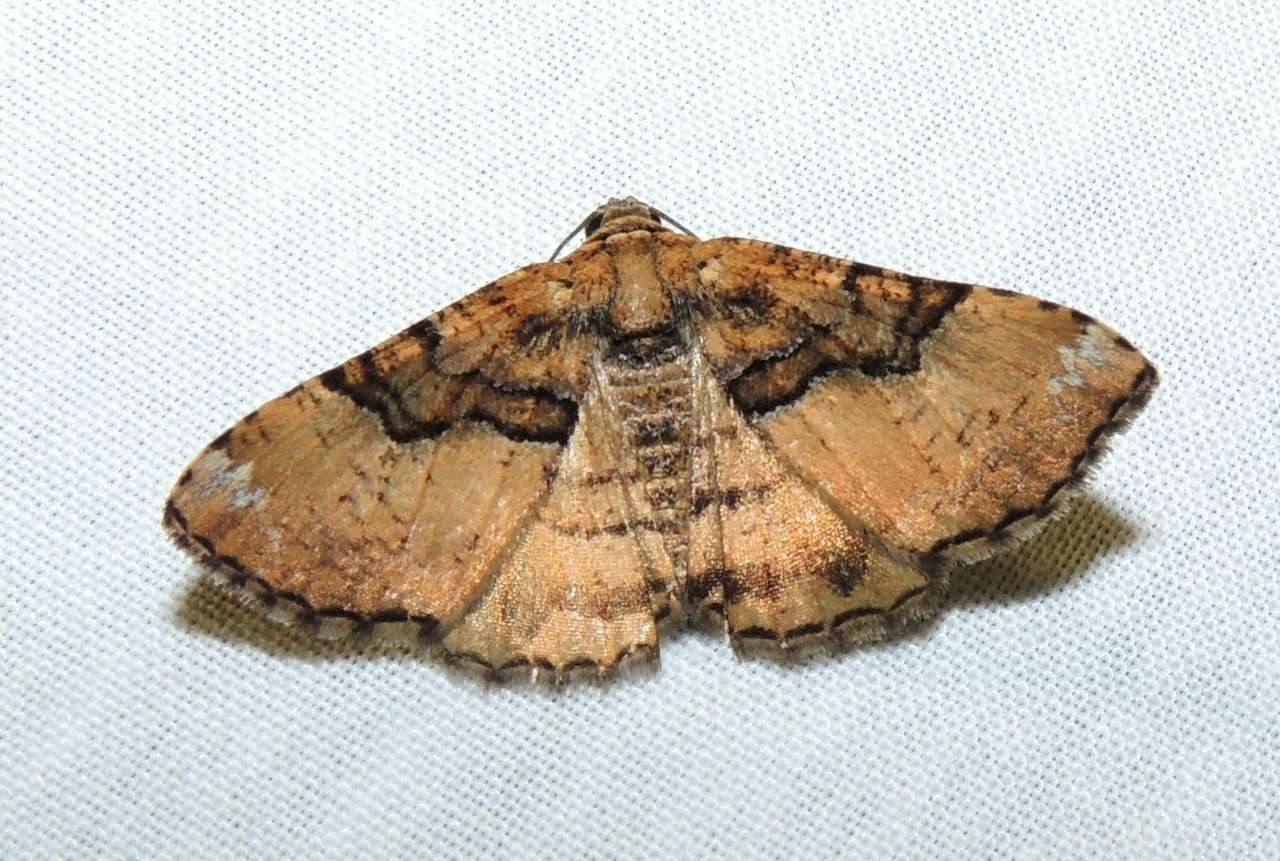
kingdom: Animalia
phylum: Arthropoda
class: Insecta
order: Lepidoptera
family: Geometridae
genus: Aporoctena
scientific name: Aporoctena
